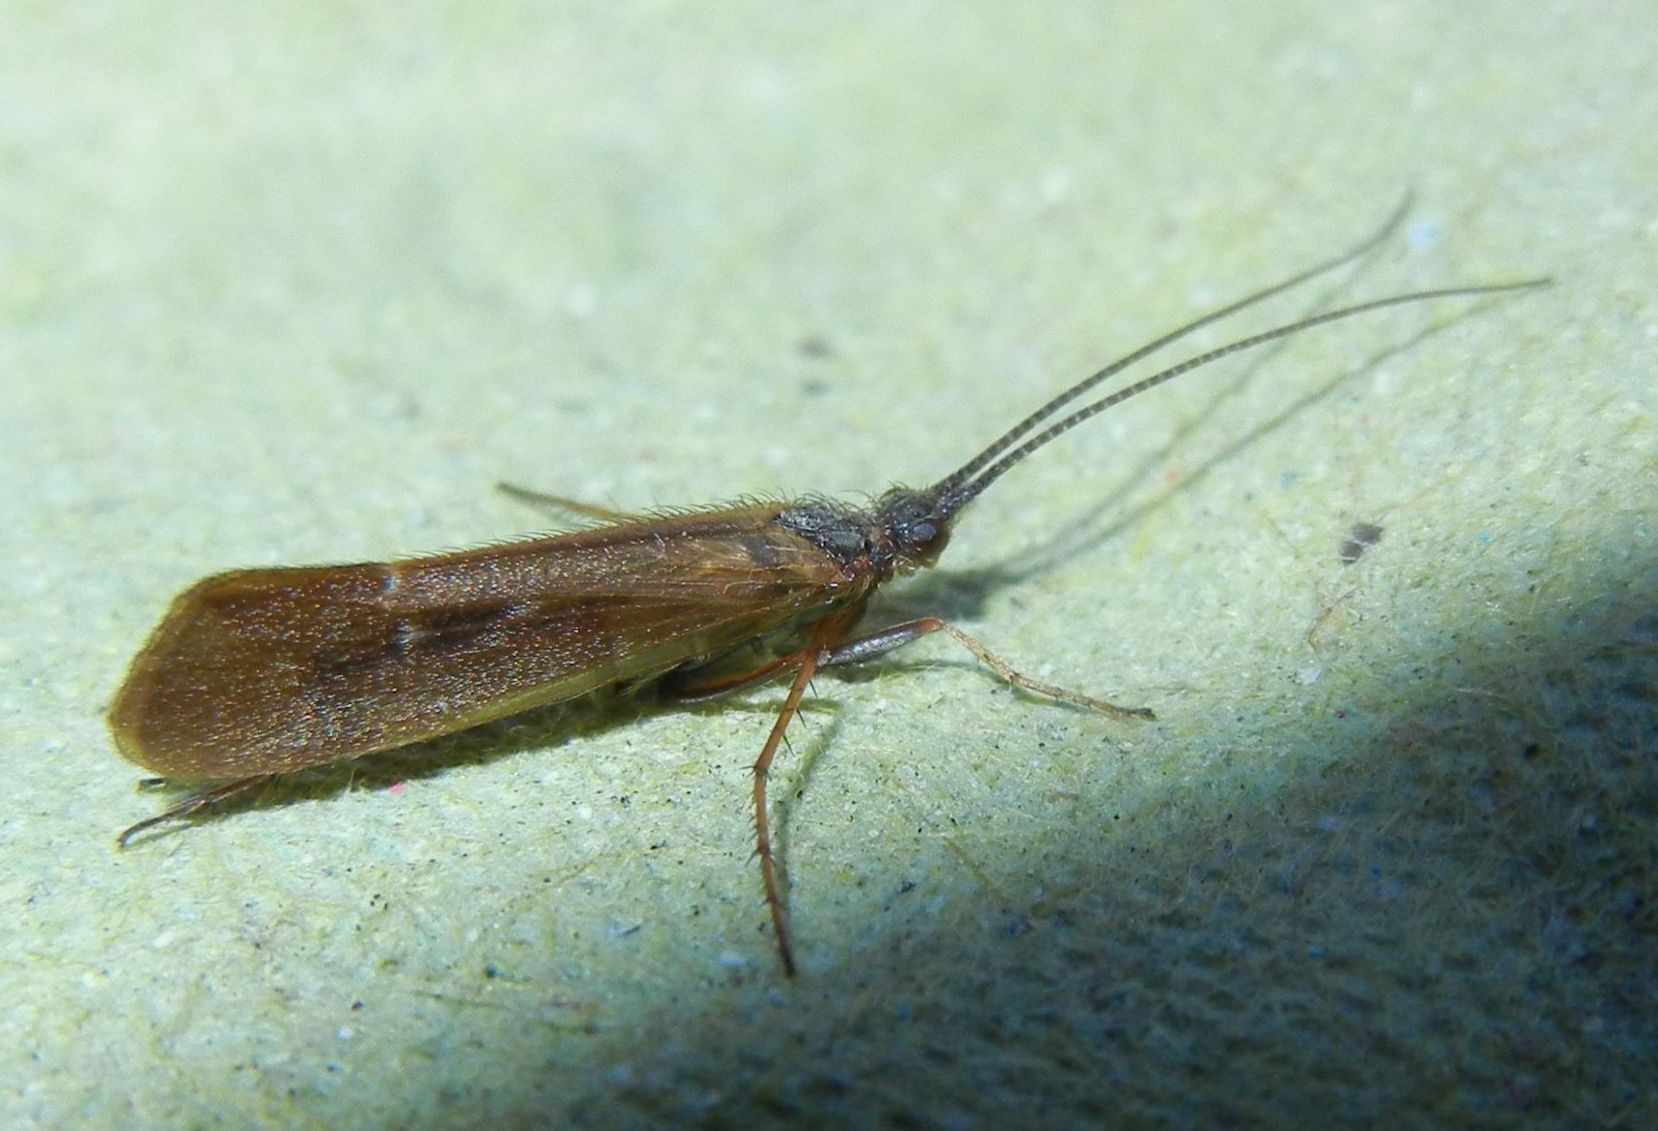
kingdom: Animalia
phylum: Arthropoda
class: Insecta
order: Trichoptera
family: Limnephilidae
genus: Limnephilus
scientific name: Limnephilus auricula
